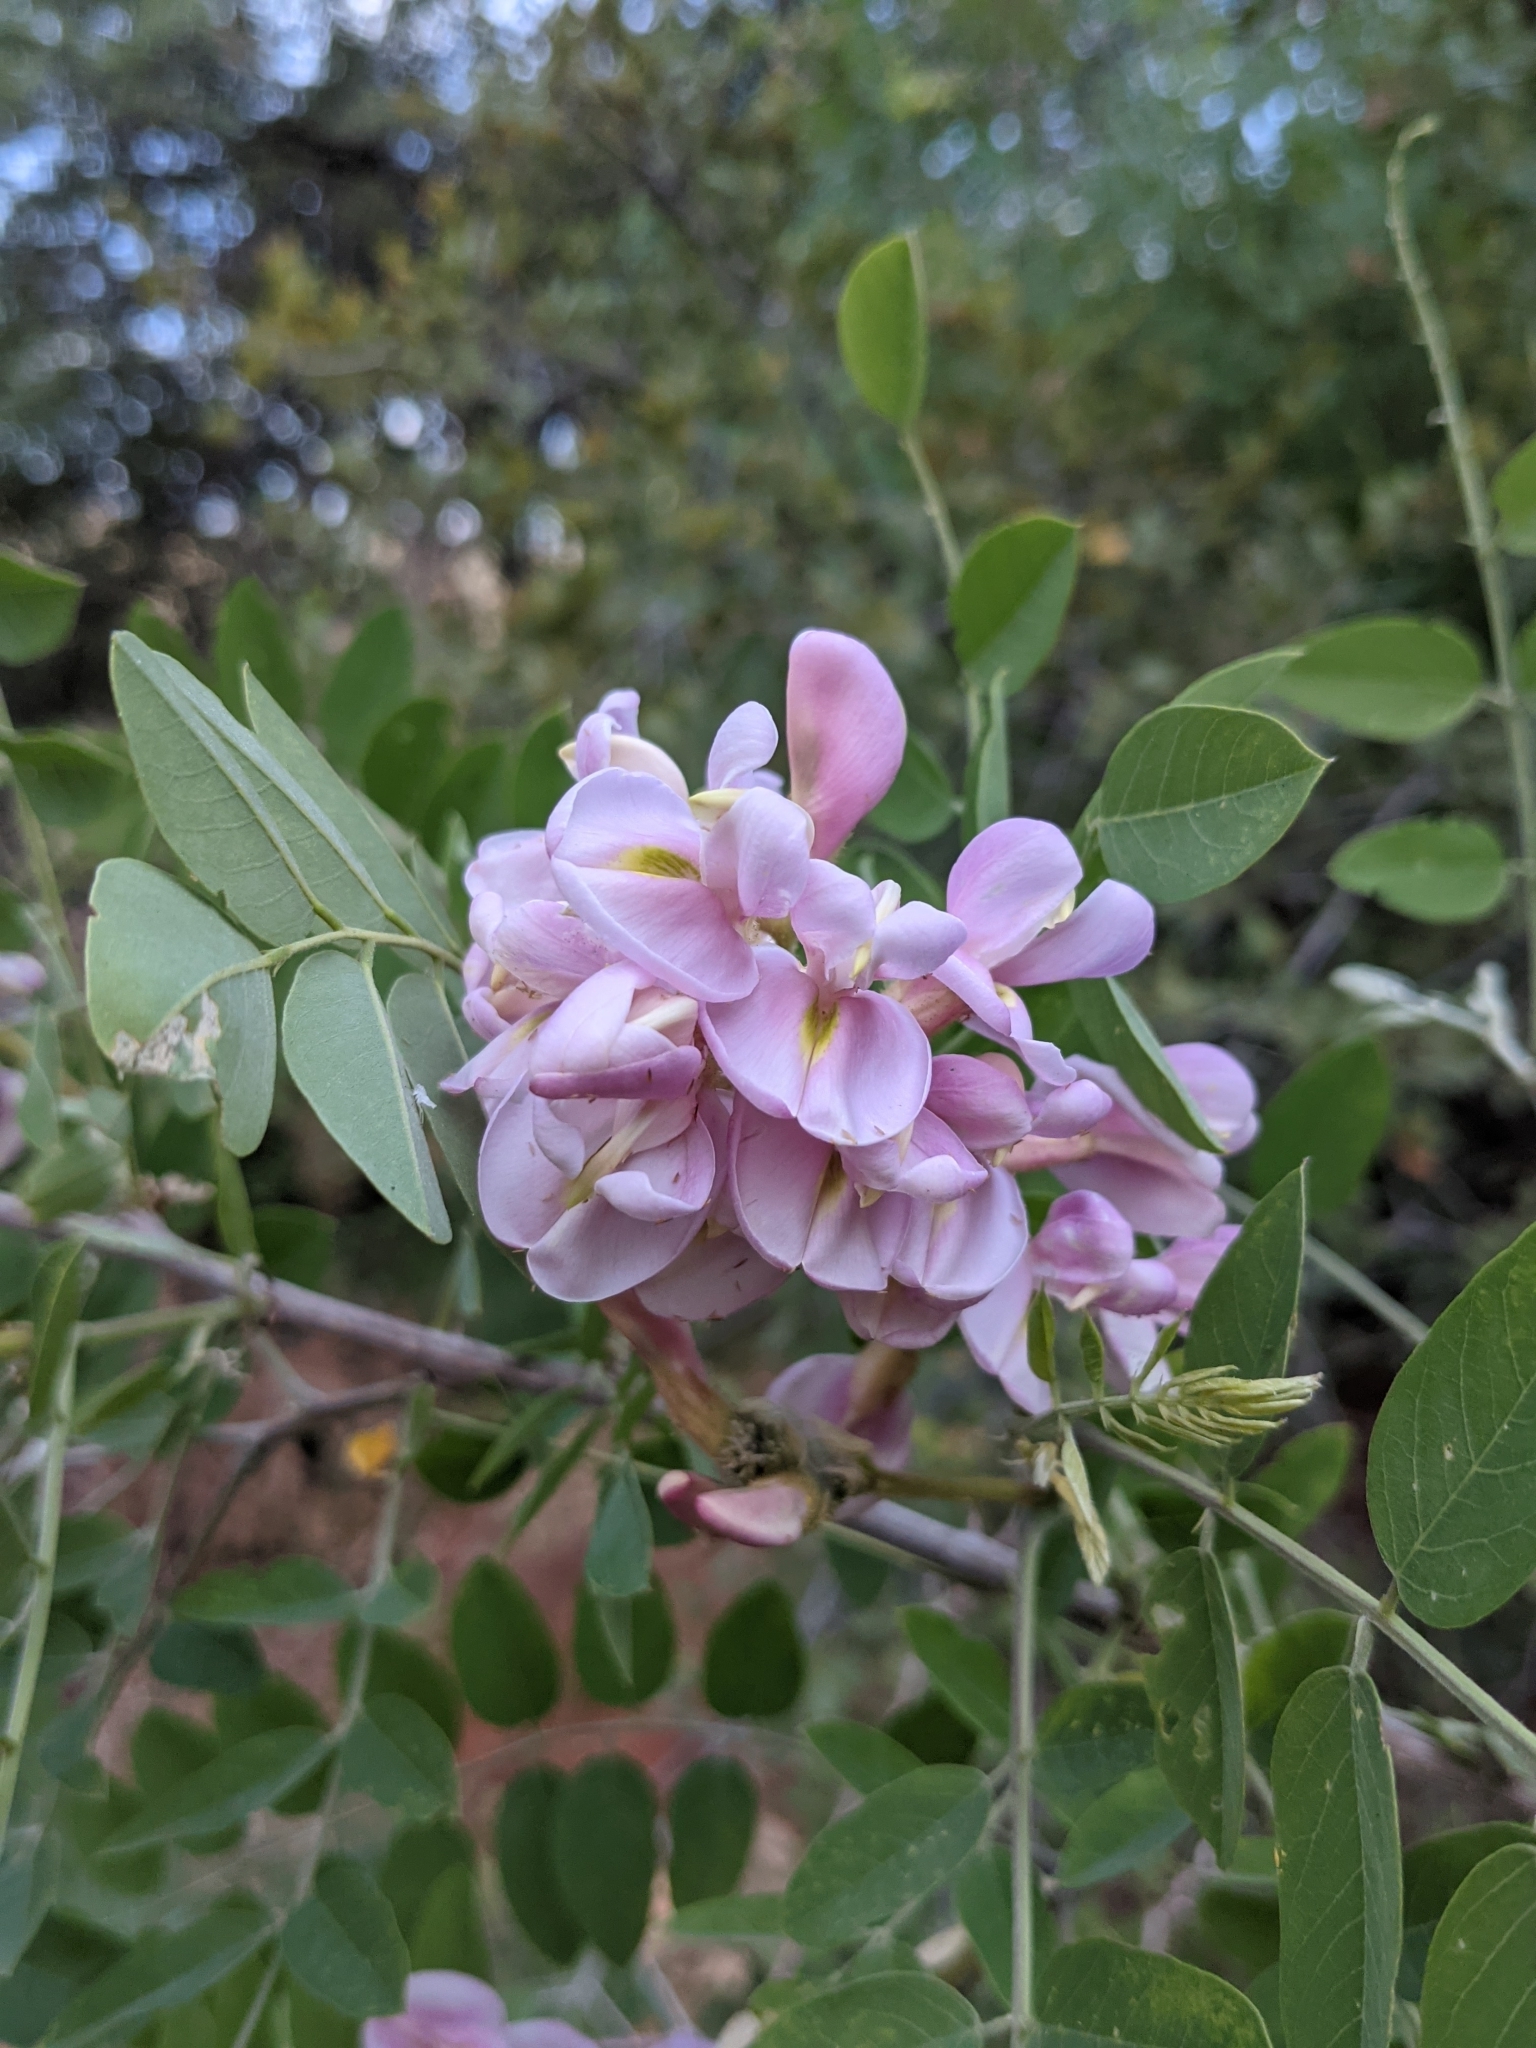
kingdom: Plantae
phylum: Tracheophyta
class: Magnoliopsida
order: Fabales
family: Fabaceae
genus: Robinia
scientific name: Robinia neomexicana
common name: New mexico locust
